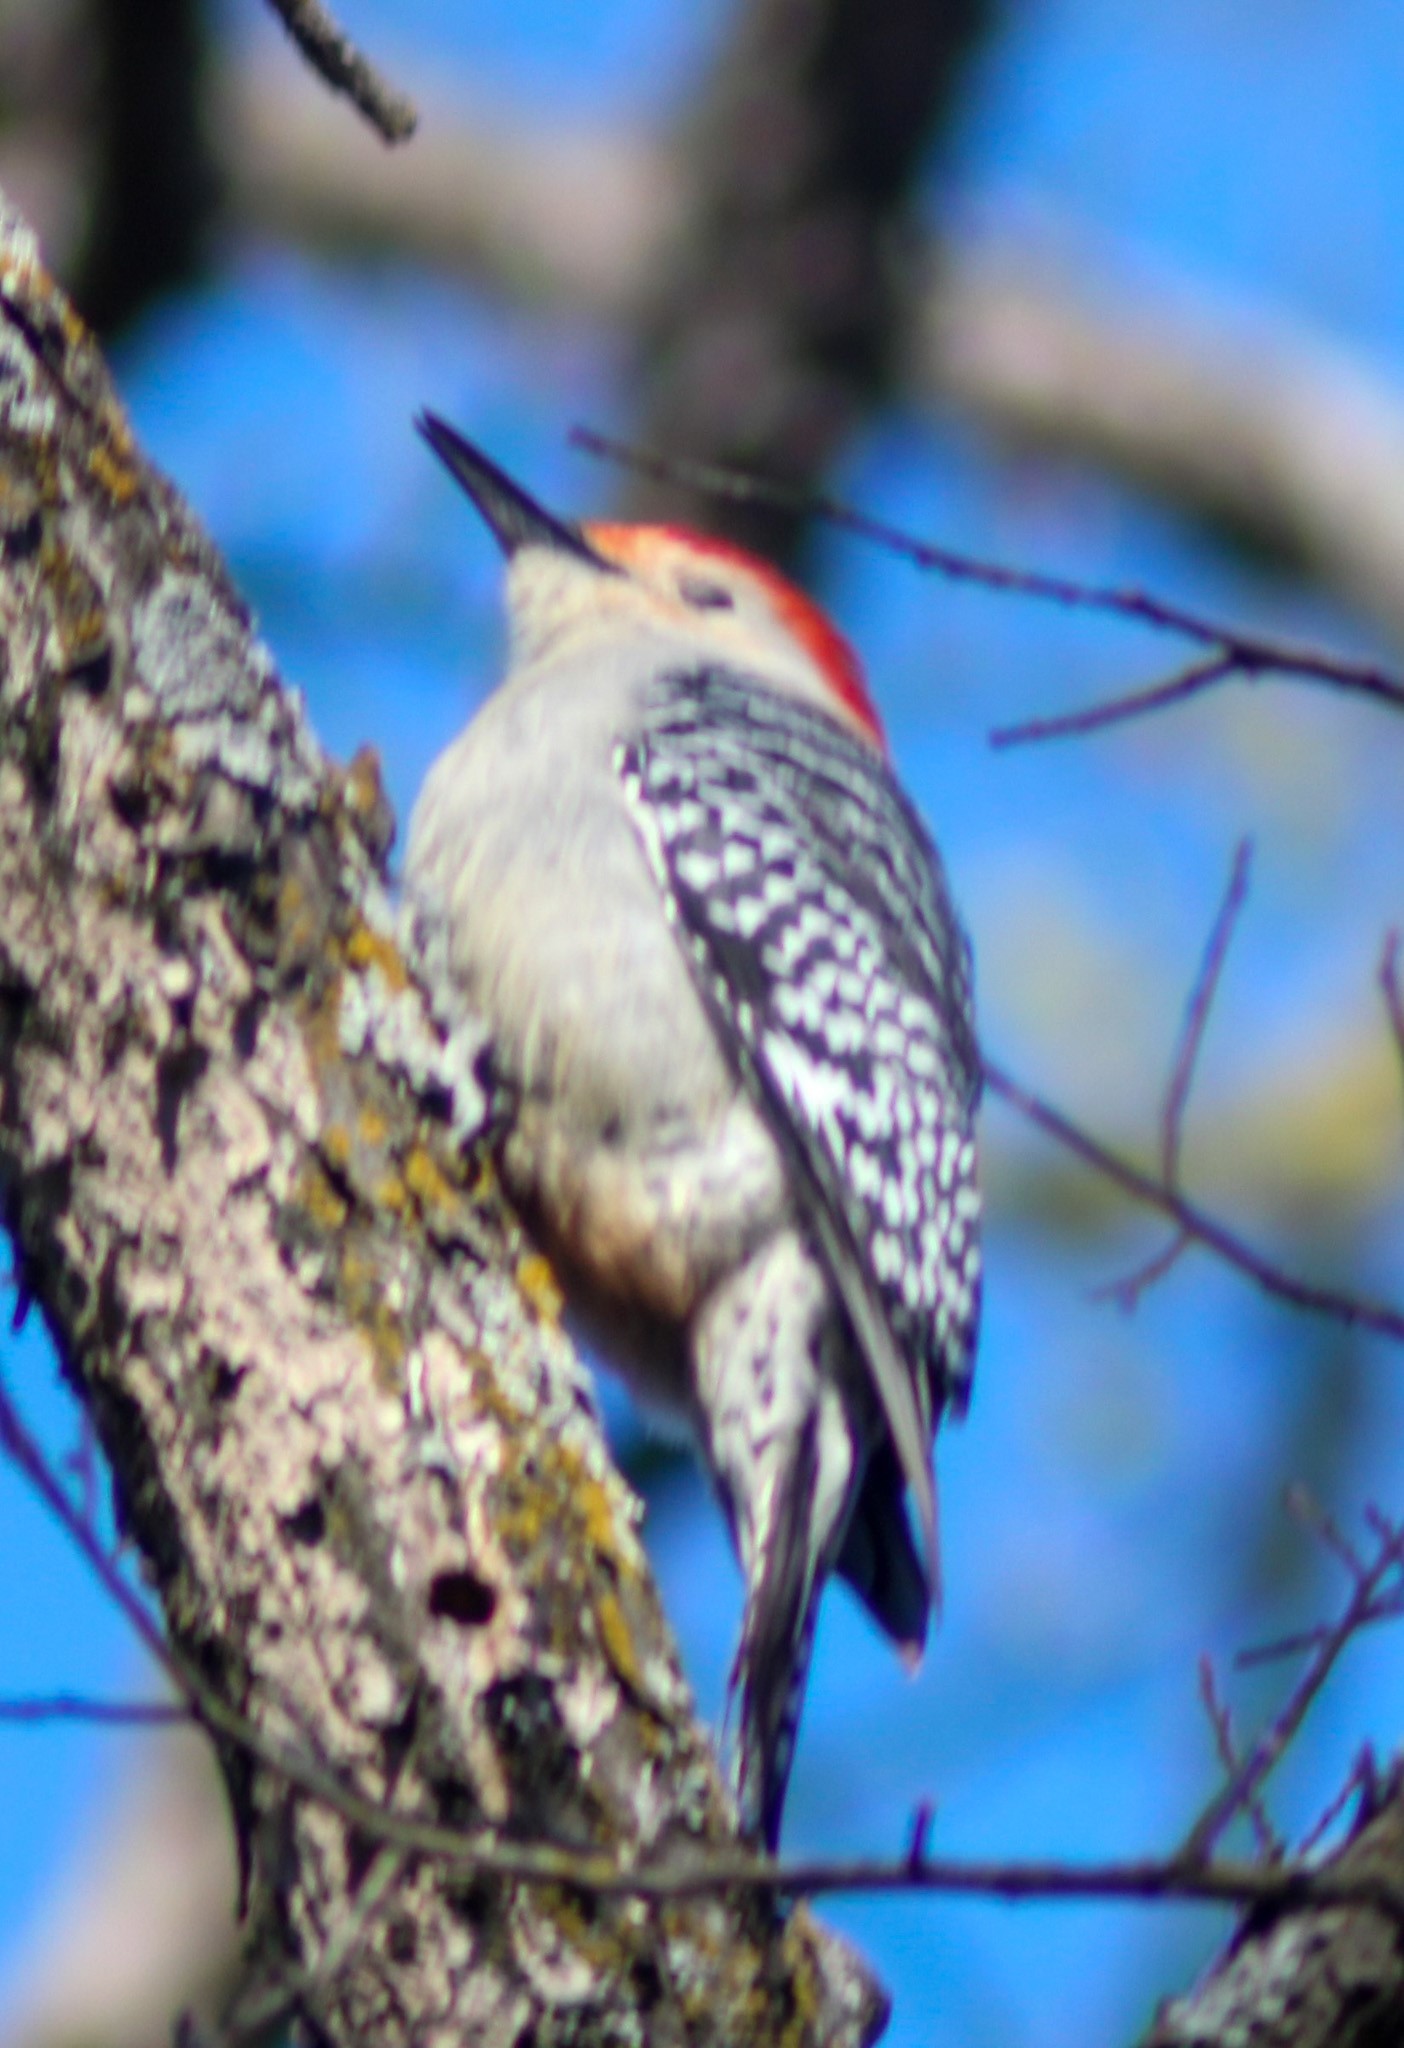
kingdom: Animalia
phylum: Chordata
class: Aves
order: Piciformes
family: Picidae
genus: Melanerpes
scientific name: Melanerpes carolinus
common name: Red-bellied woodpecker
